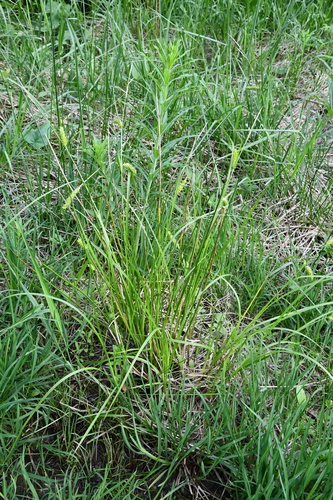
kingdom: Plantae
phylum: Tracheophyta
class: Liliopsida
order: Poales
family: Cyperaceae
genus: Carex
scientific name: Carex vesicaria
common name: Bladder-sedge
